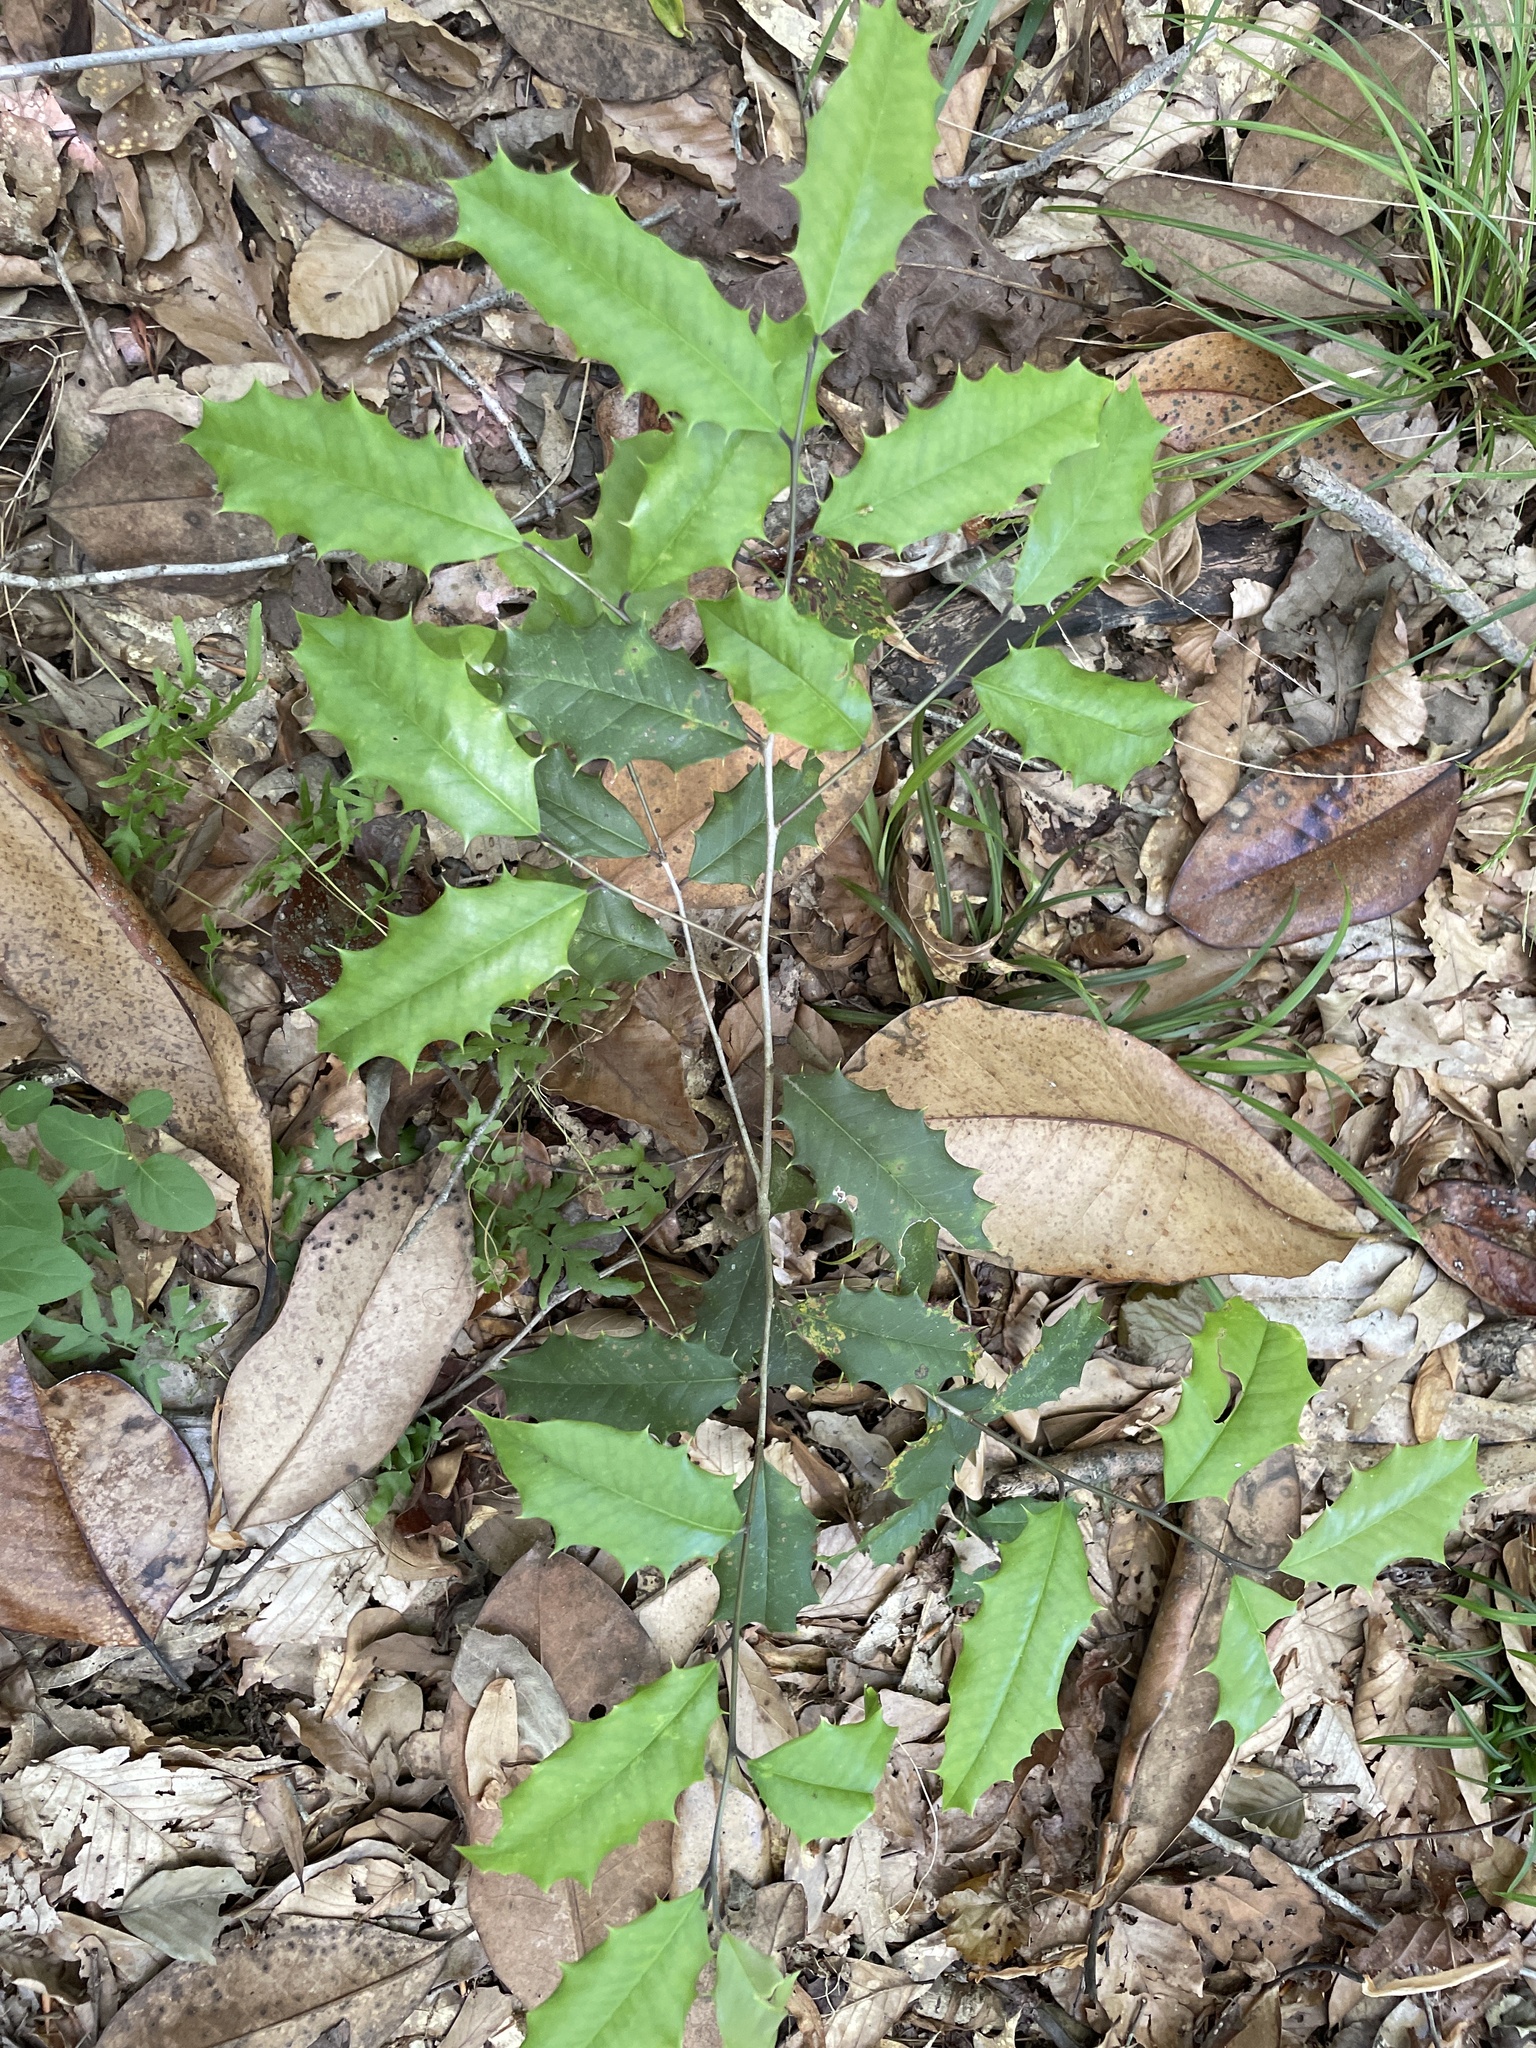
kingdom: Plantae
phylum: Tracheophyta
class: Magnoliopsida
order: Aquifoliales
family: Aquifoliaceae
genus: Ilex
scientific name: Ilex opaca
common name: American holly
